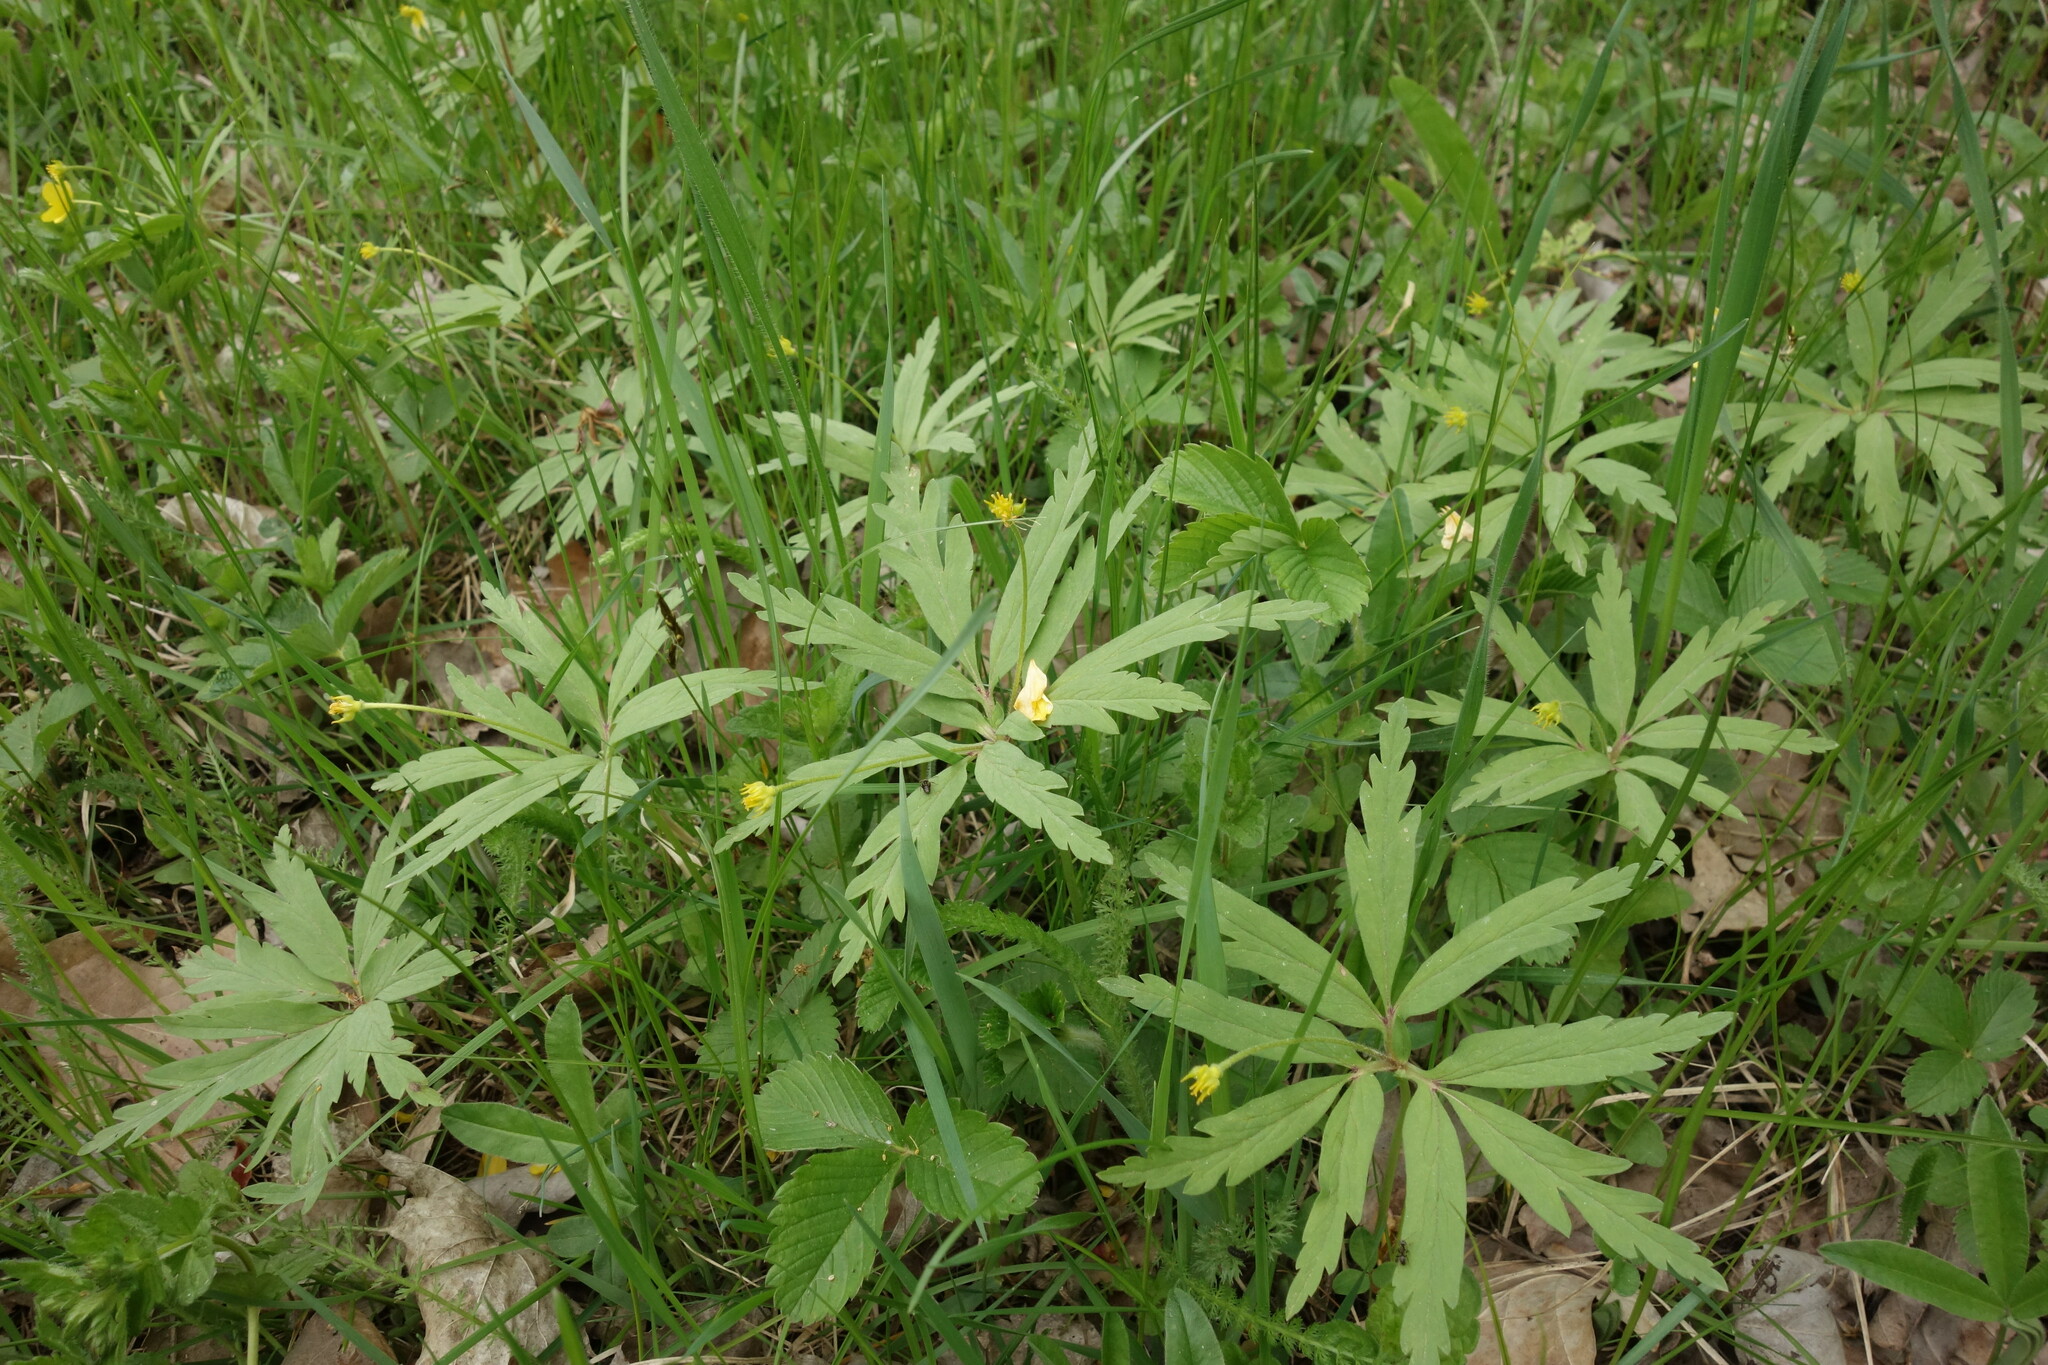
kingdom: Plantae
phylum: Tracheophyta
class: Magnoliopsida
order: Ranunculales
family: Ranunculaceae
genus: Anemone
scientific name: Anemone ranunculoides
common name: Yellow anemone
